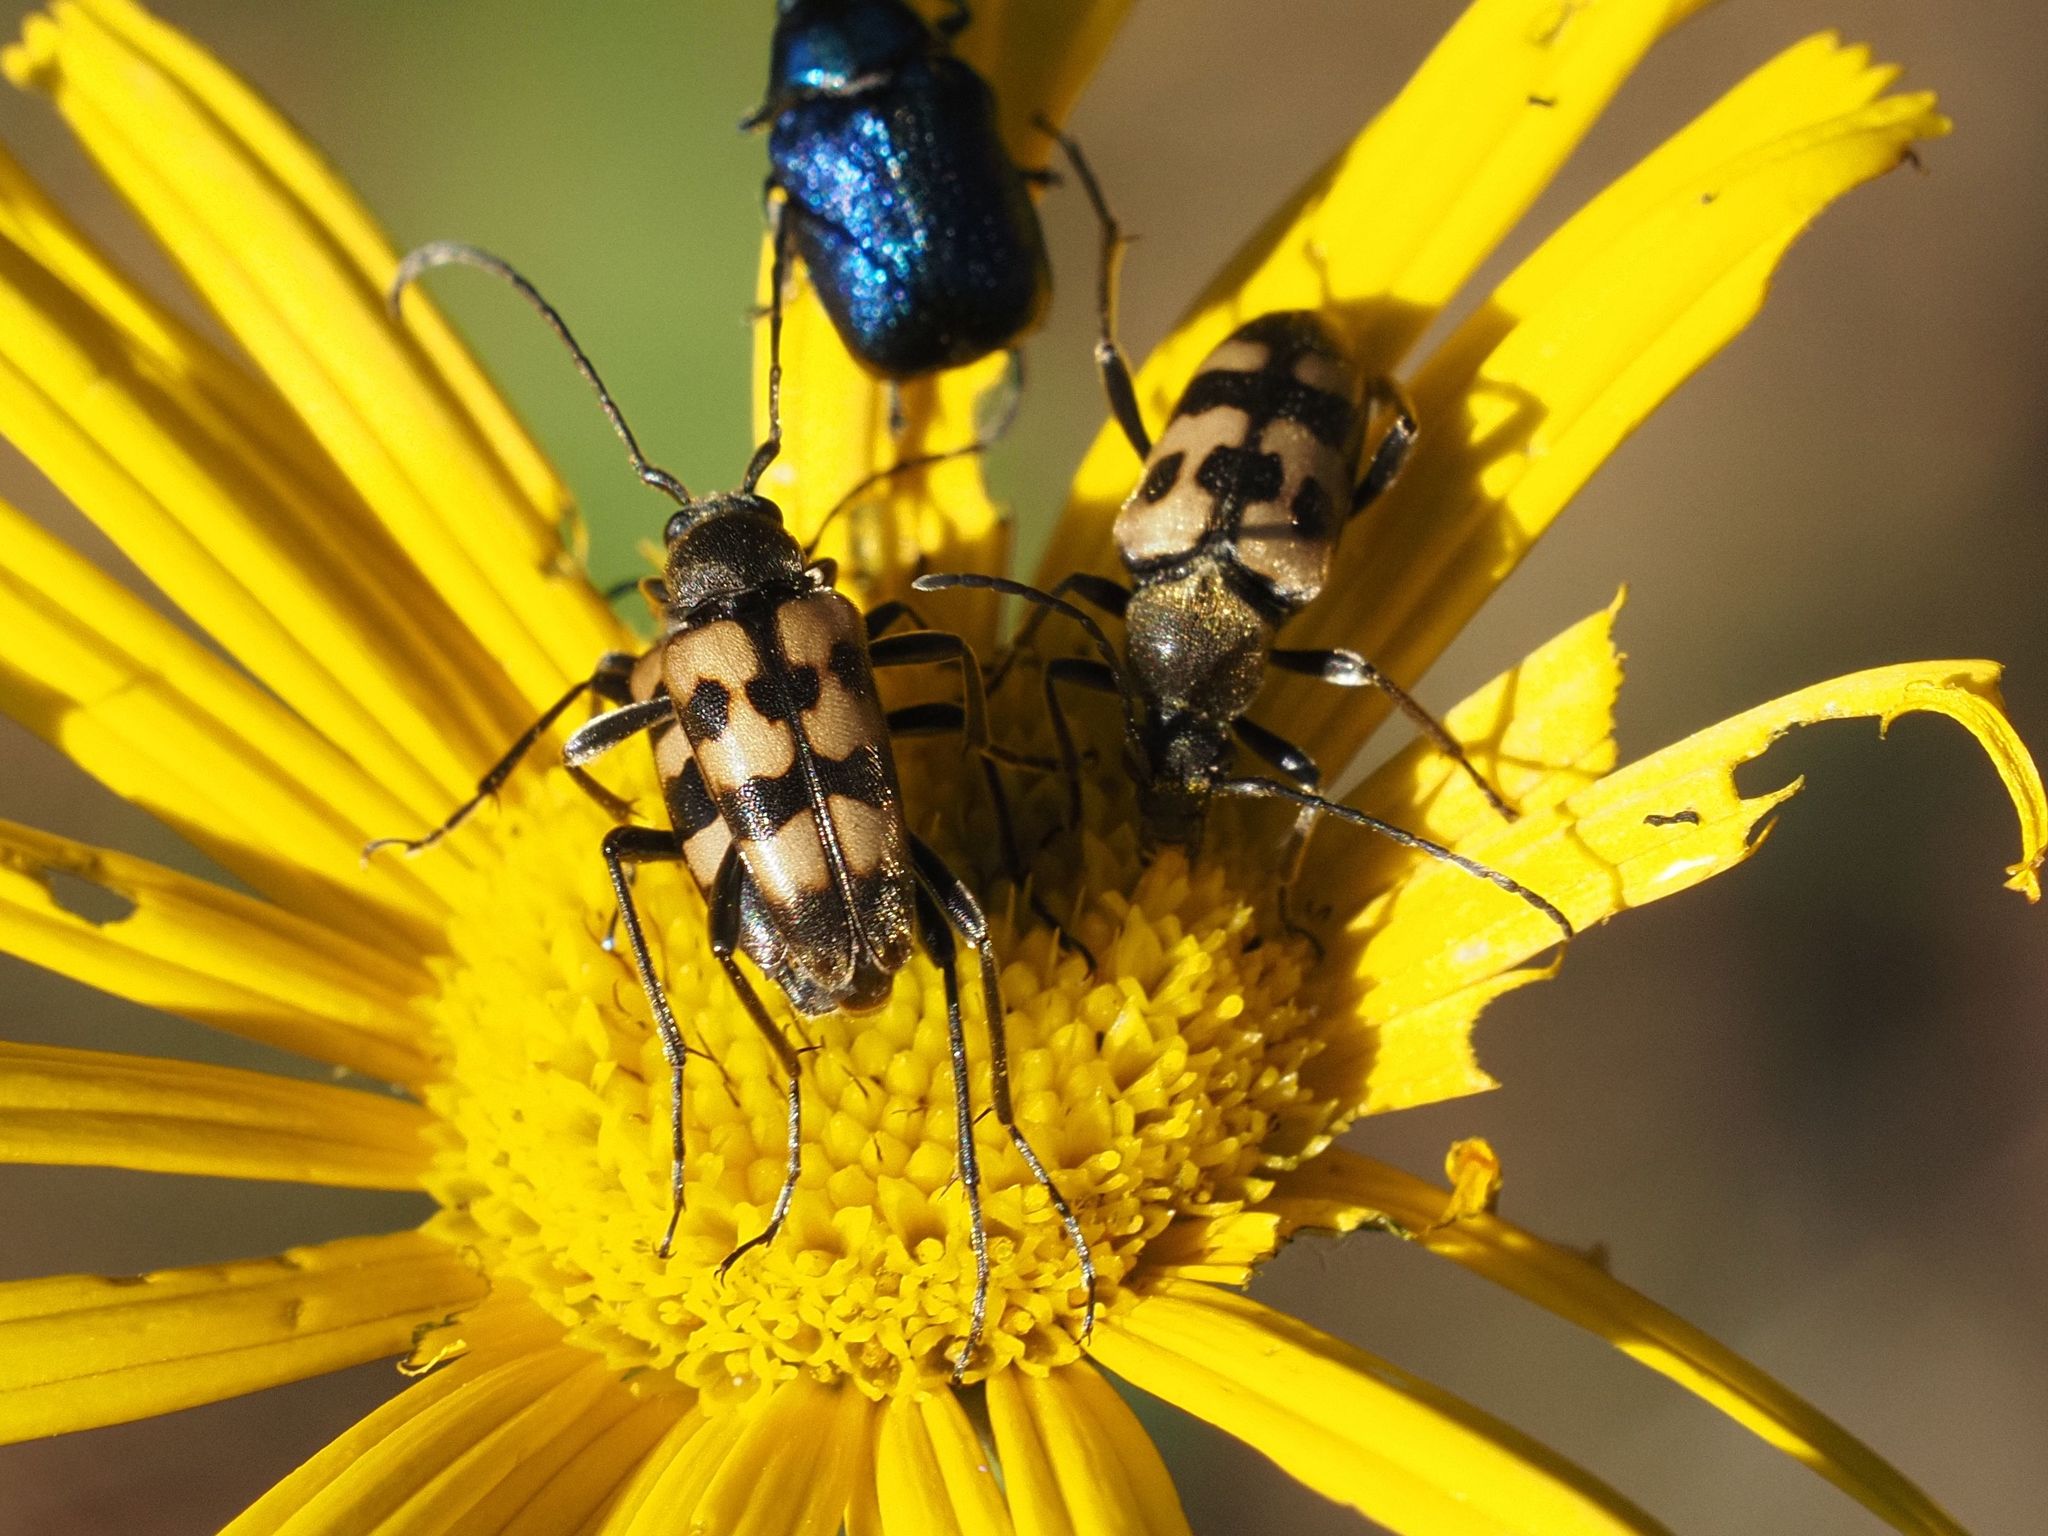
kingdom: Animalia
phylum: Arthropoda
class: Insecta
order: Coleoptera
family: Cerambycidae
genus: Pachytodes
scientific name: Pachytodes
